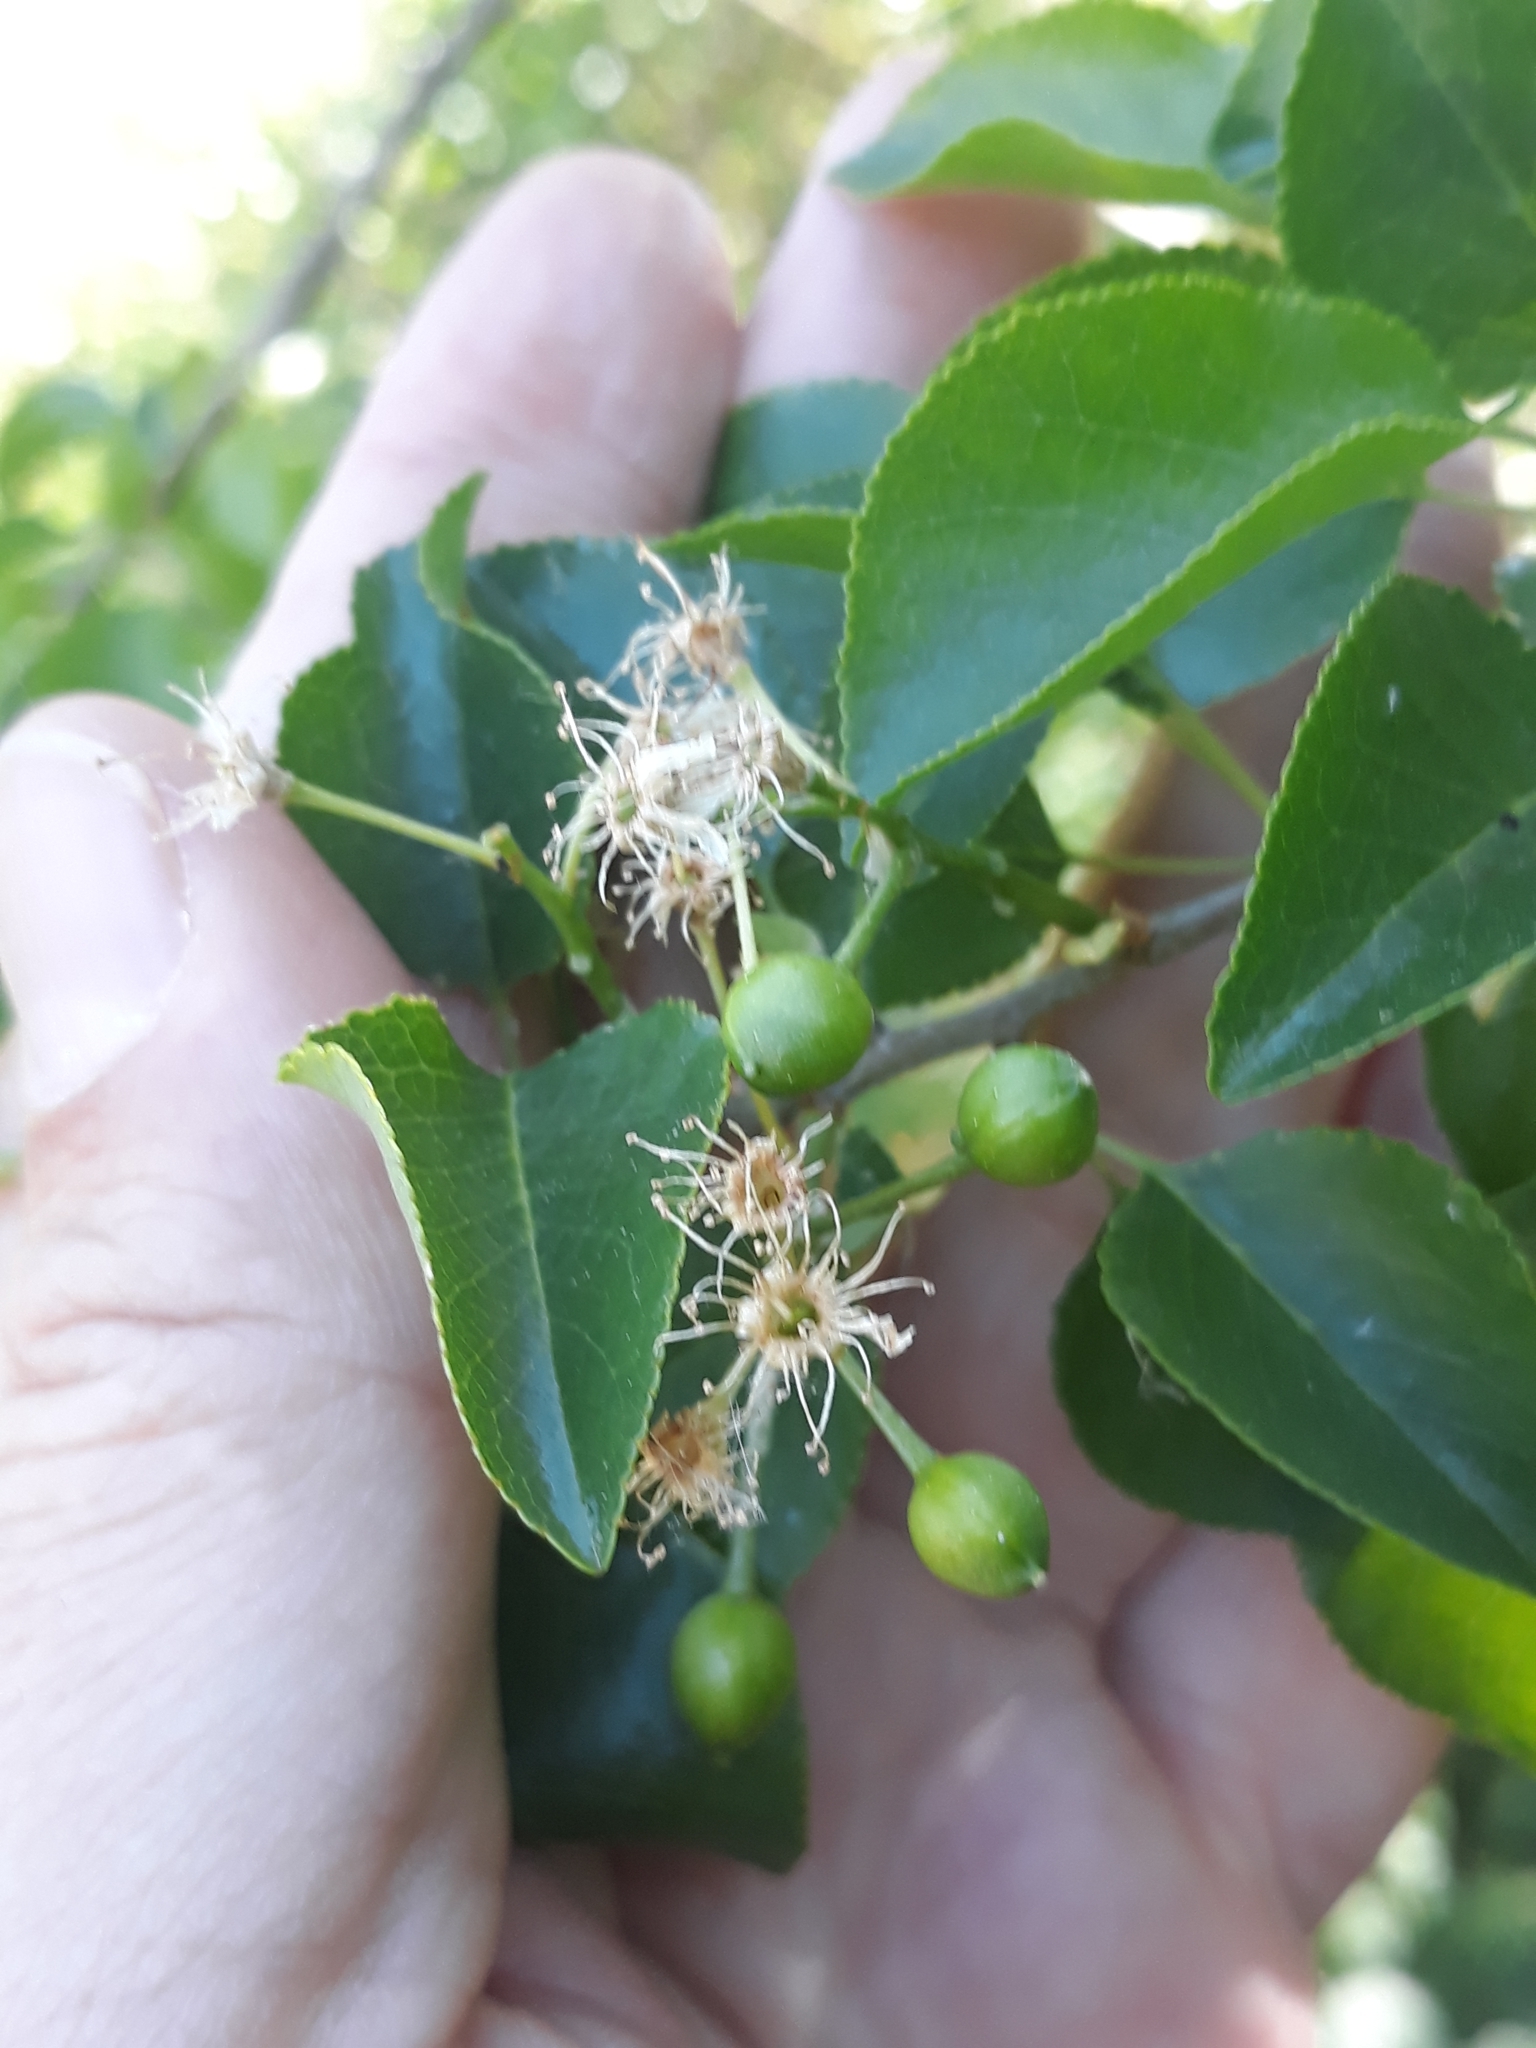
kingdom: Plantae
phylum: Tracheophyta
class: Magnoliopsida
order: Rosales
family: Rosaceae
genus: Prunus
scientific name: Prunus mahaleb
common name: Mahaleb cherry
